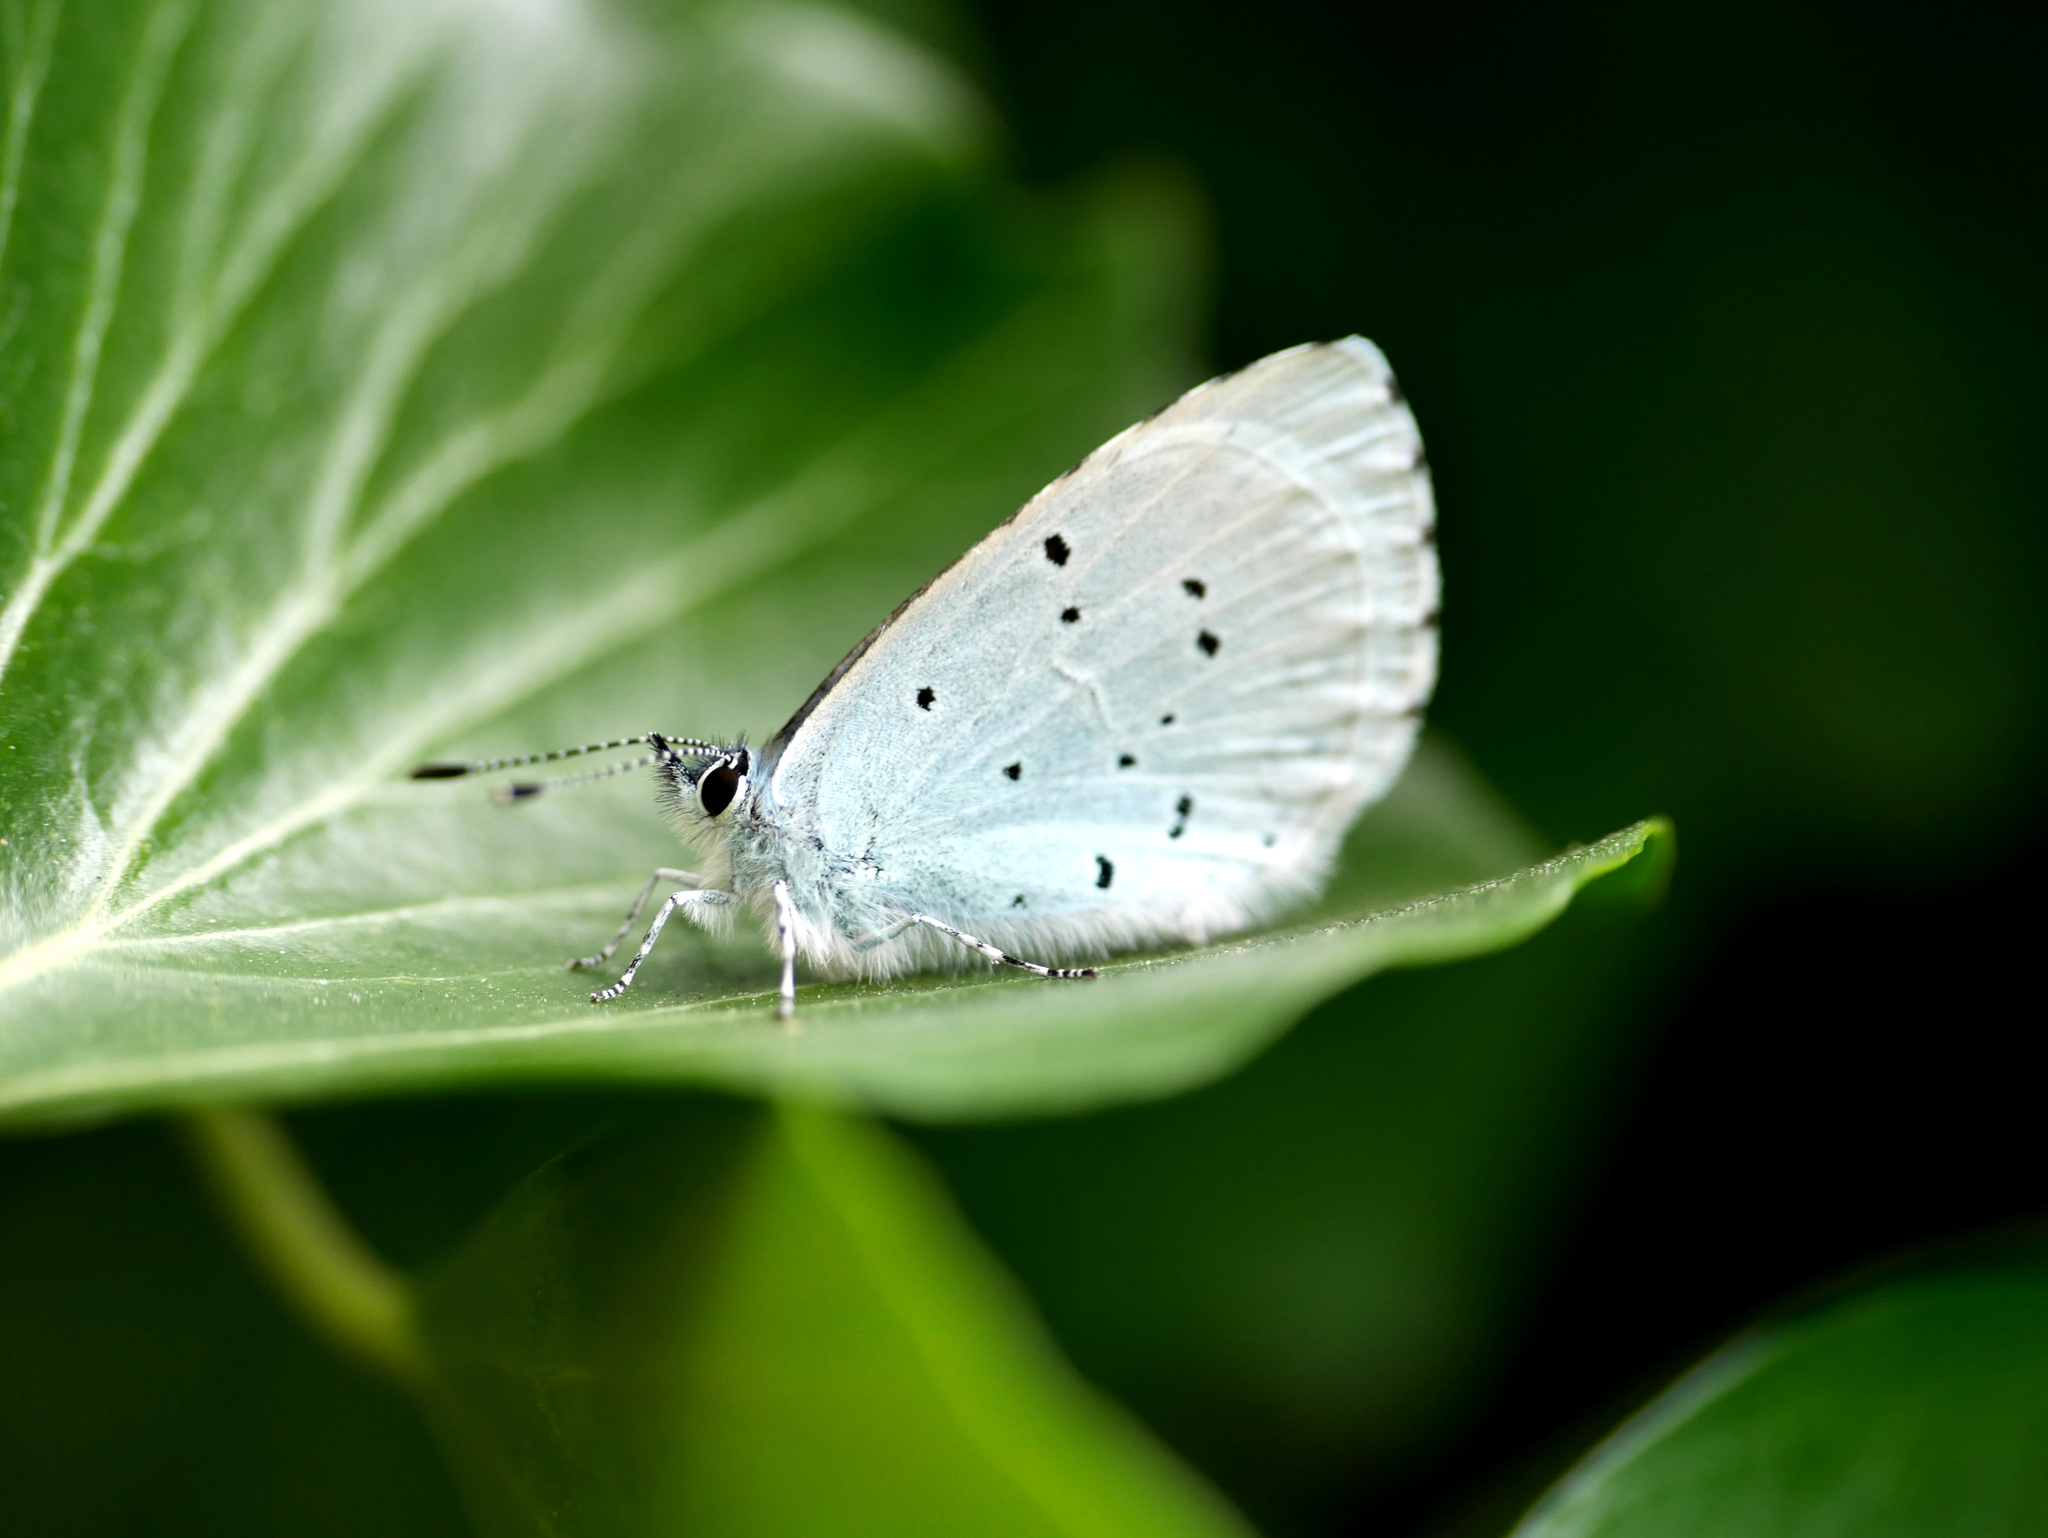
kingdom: Animalia
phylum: Arthropoda
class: Insecta
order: Lepidoptera
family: Lycaenidae
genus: Celastrina
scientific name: Celastrina argiolus
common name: Holly blue
